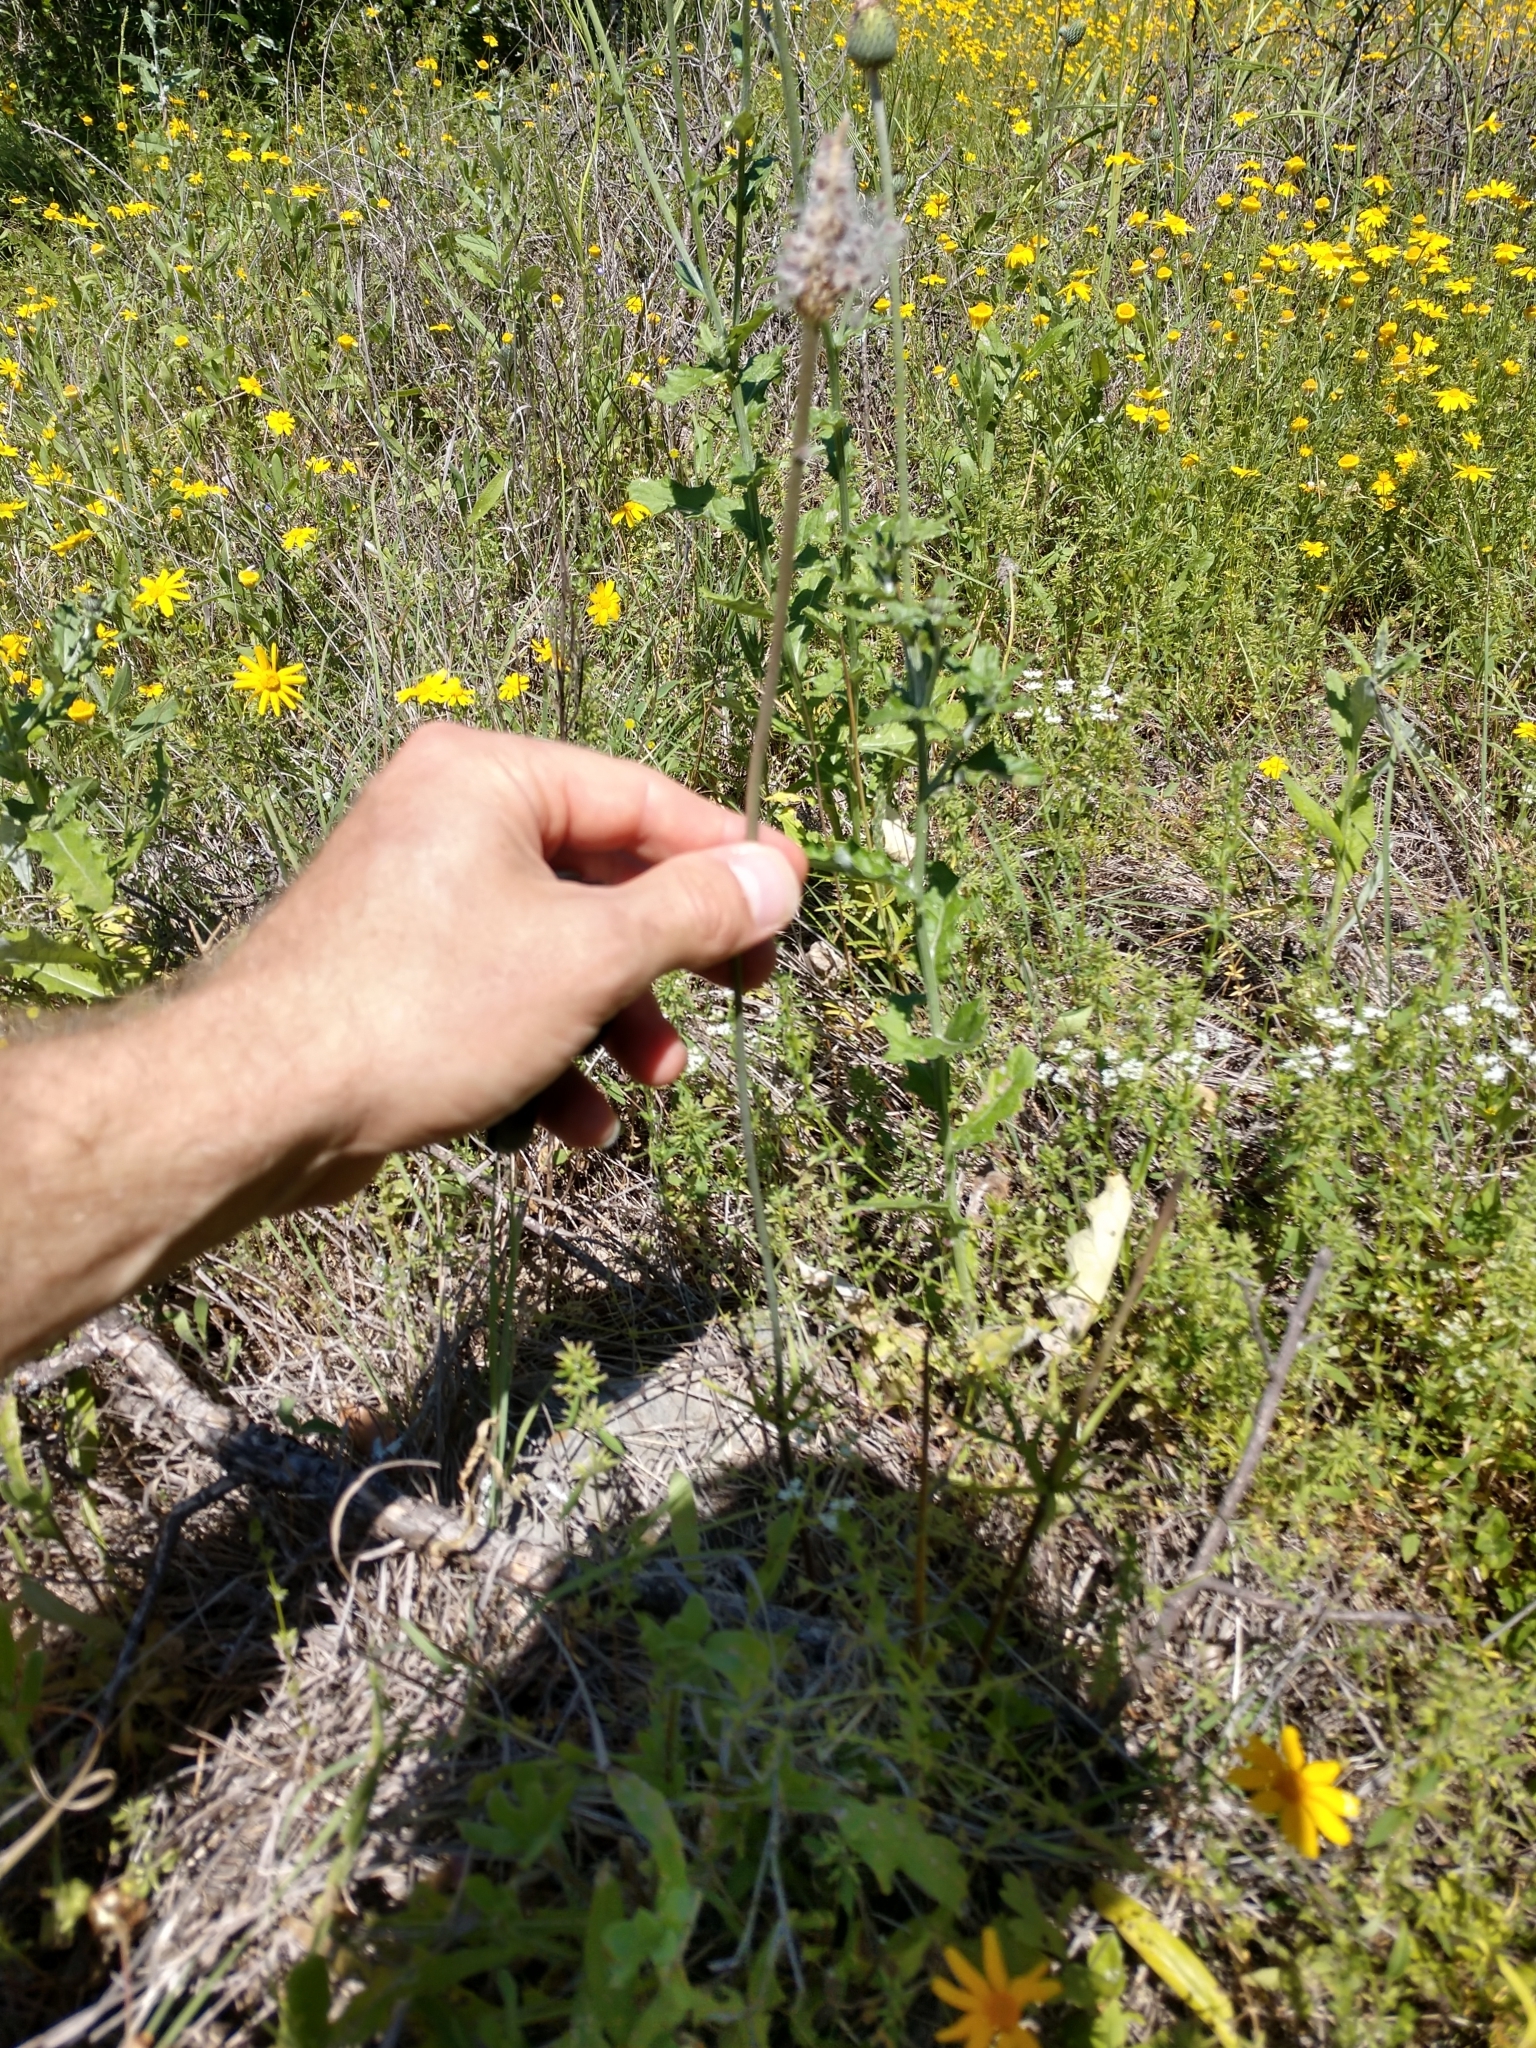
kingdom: Plantae
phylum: Tracheophyta
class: Magnoliopsida
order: Ranunculales
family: Ranunculaceae
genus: Anemone
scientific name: Anemone berlandieri
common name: Ten-petal anemone
